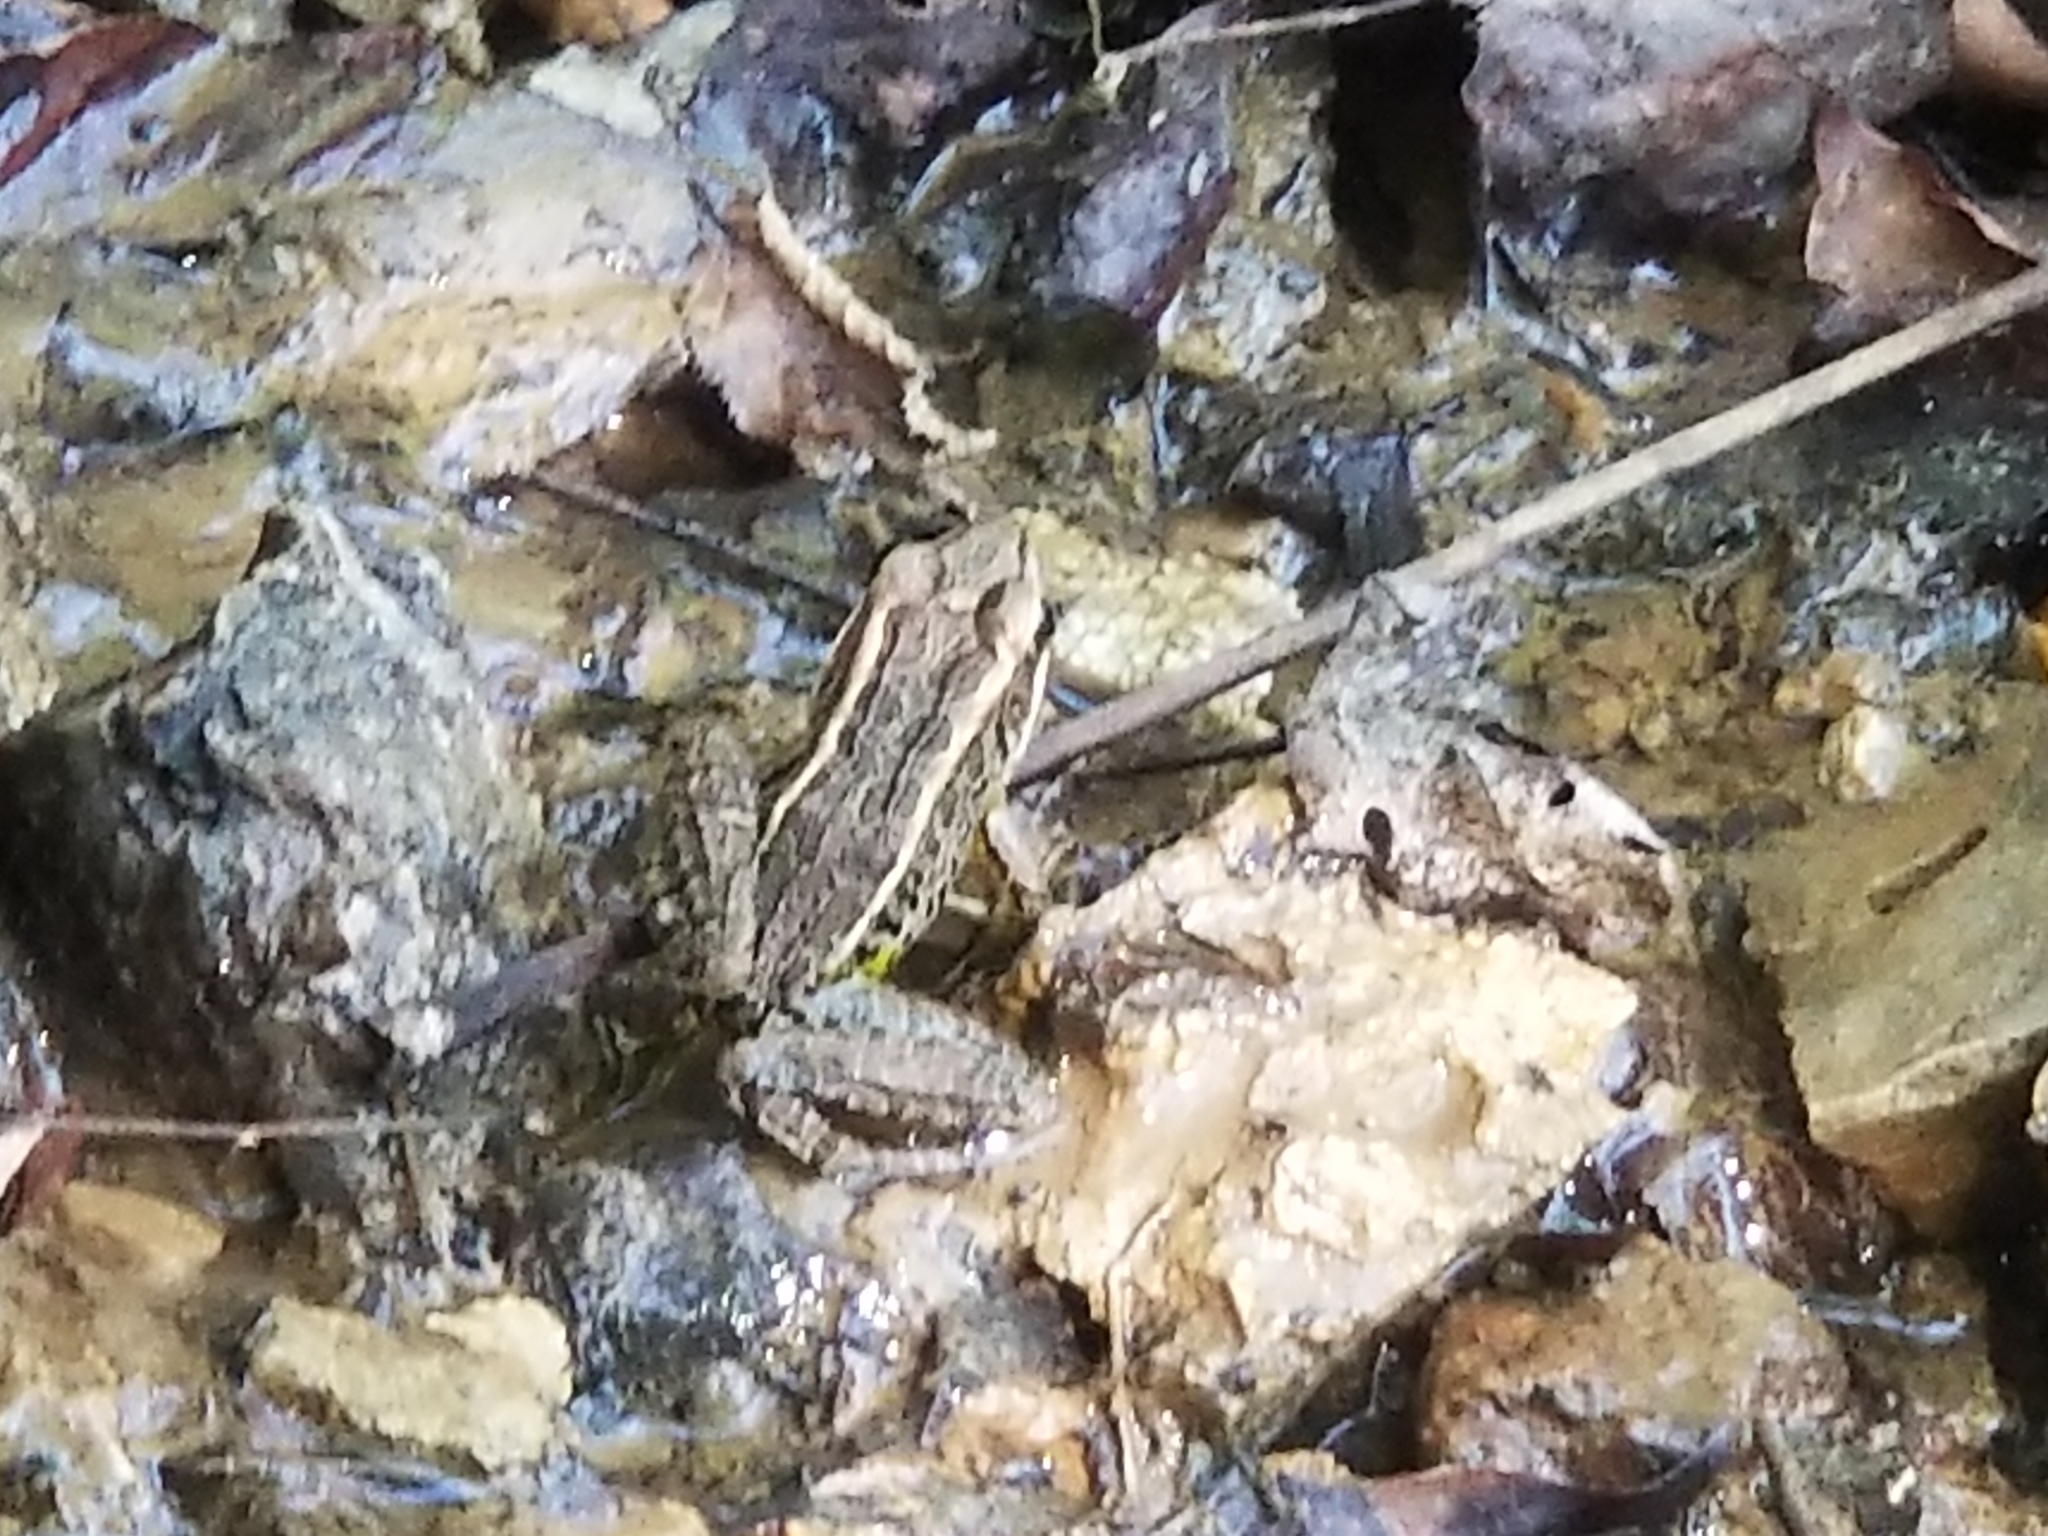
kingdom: Animalia
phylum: Chordata
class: Amphibia
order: Anura
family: Ranidae
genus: Lithobates
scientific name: Lithobates palustris
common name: Pickerel frog
